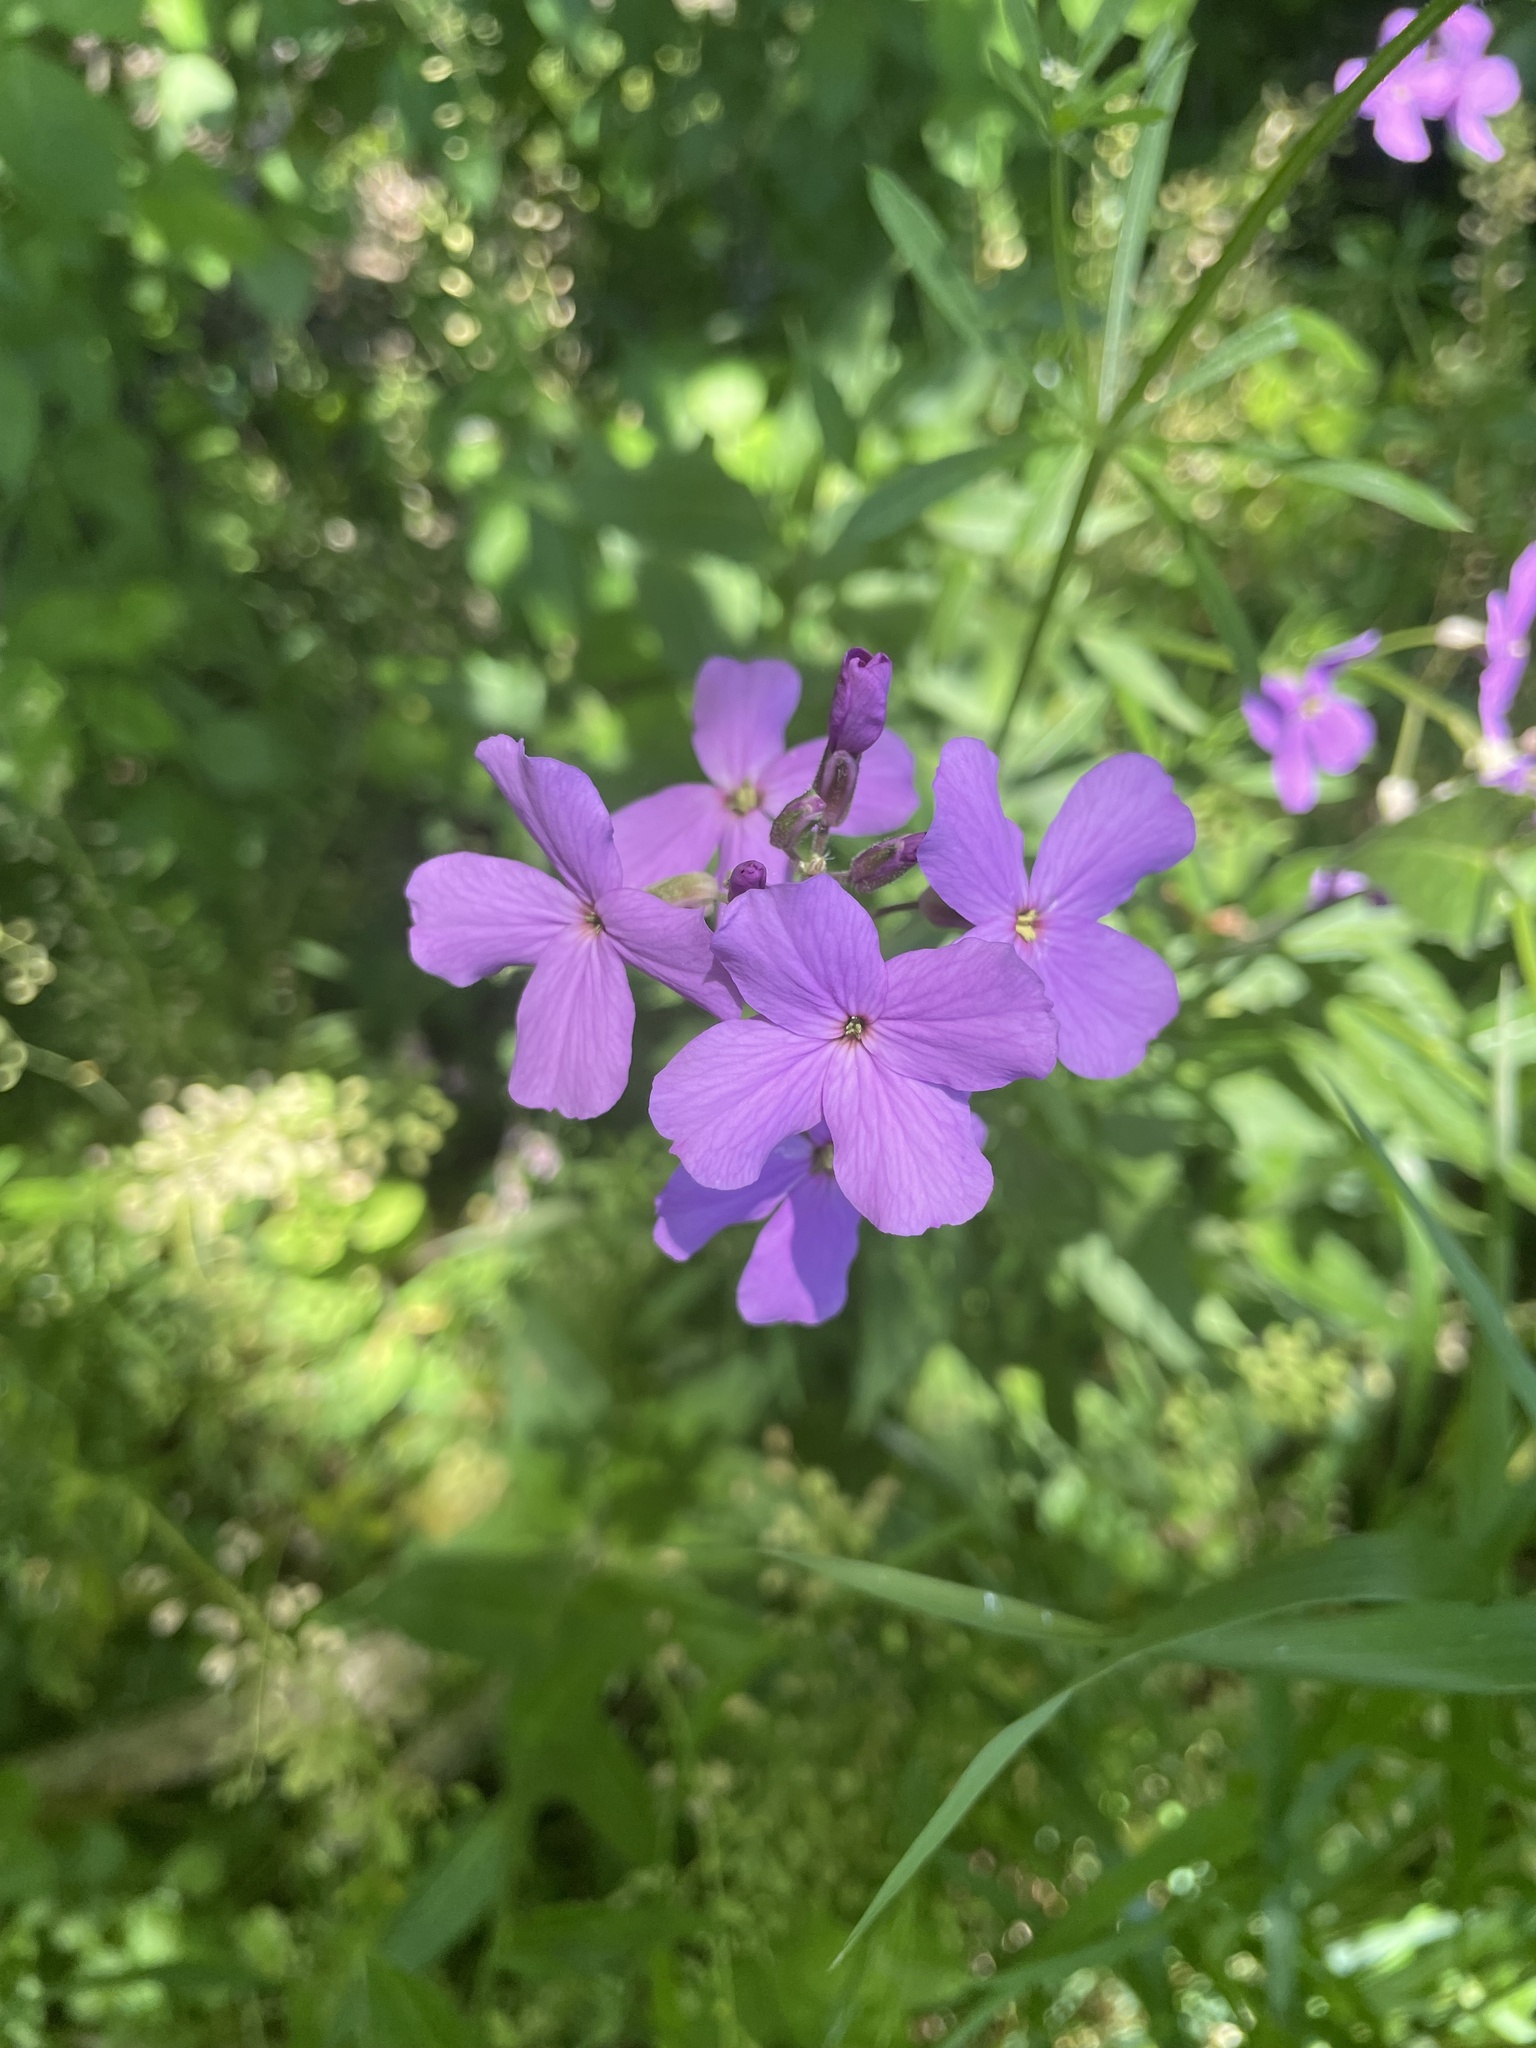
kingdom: Plantae
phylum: Tracheophyta
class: Magnoliopsida
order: Brassicales
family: Brassicaceae
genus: Hesperis
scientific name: Hesperis matronalis
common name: Dame's-violet
